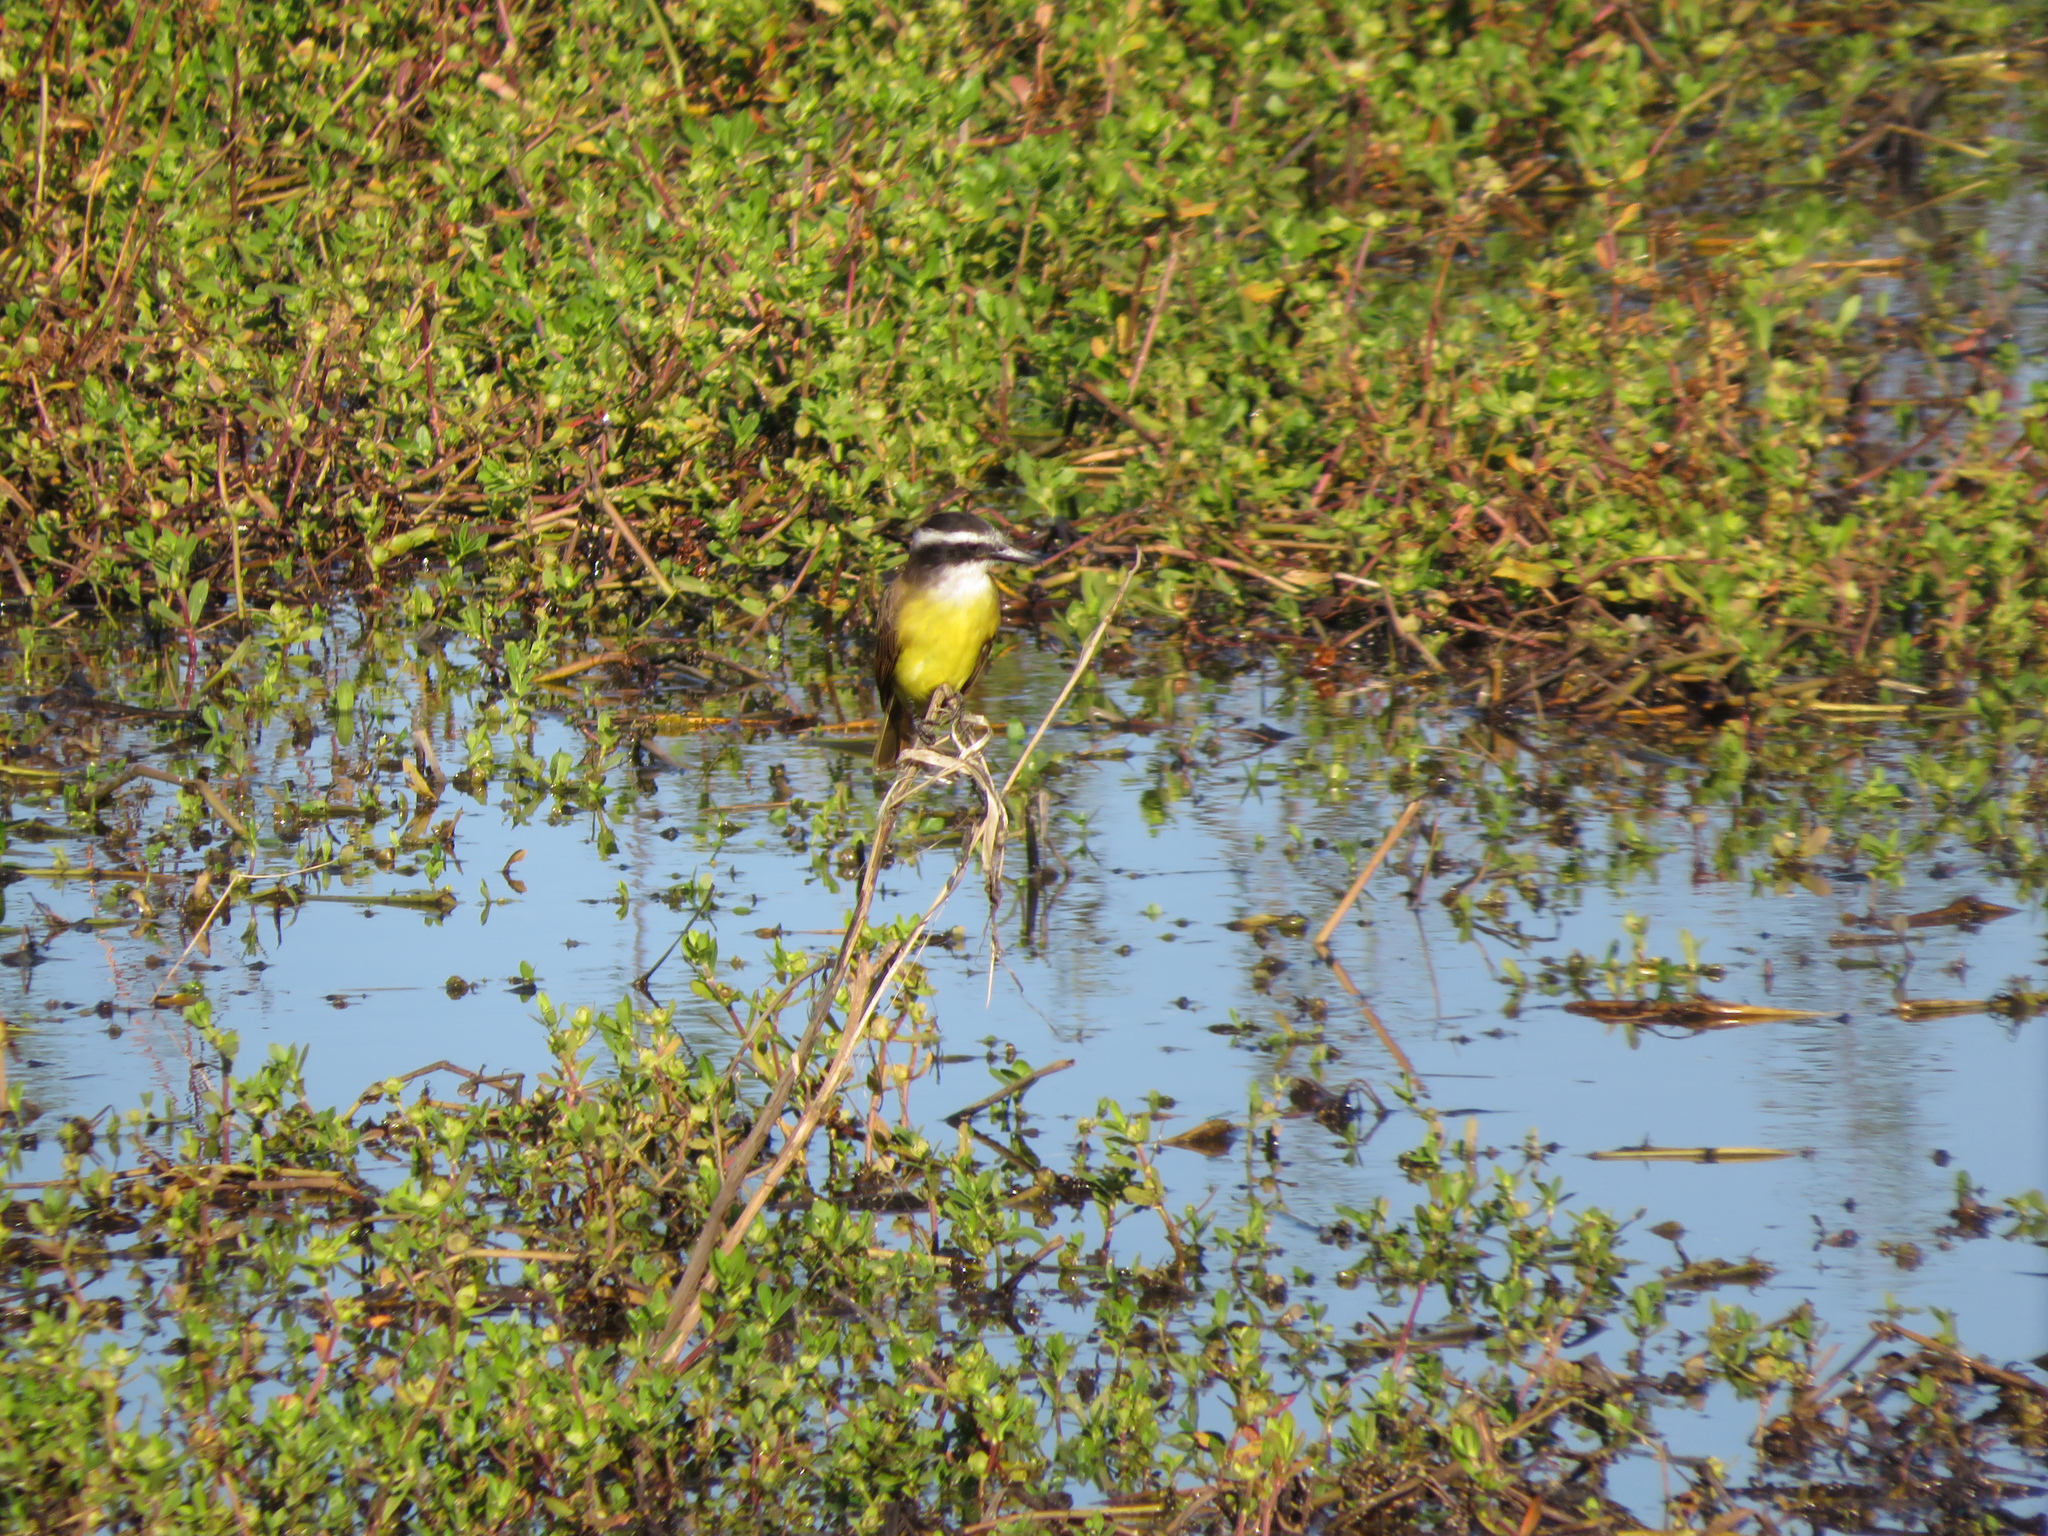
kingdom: Animalia
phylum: Chordata
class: Aves
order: Passeriformes
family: Tyrannidae
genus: Pitangus
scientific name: Pitangus sulphuratus
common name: Great kiskadee
